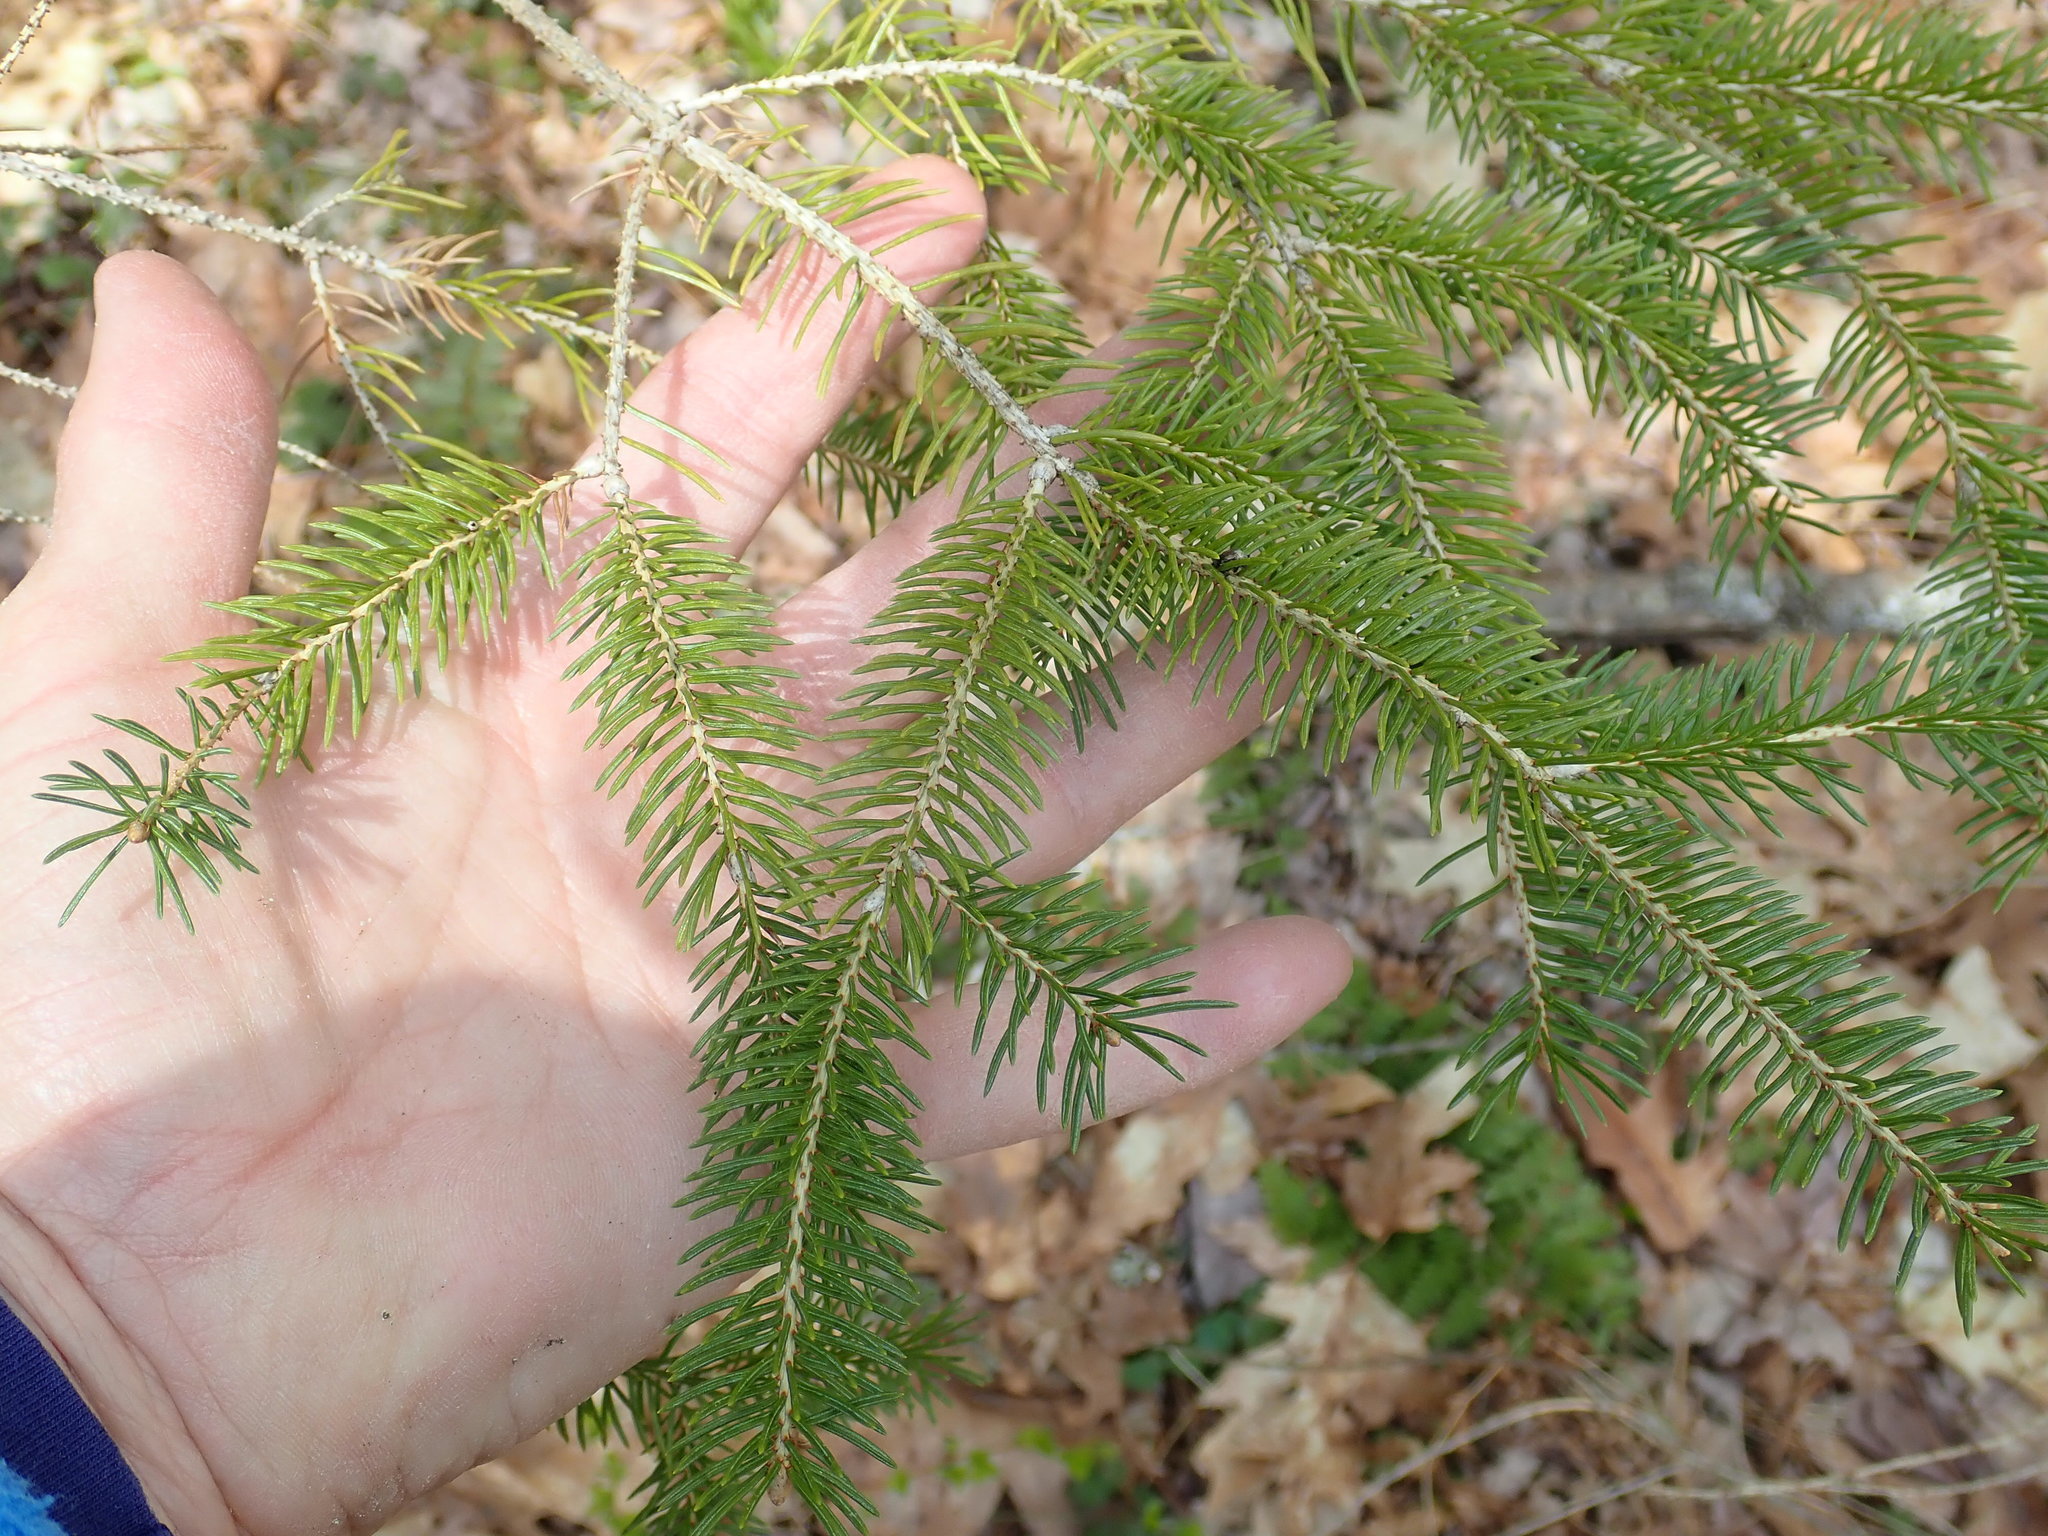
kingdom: Plantae
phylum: Tracheophyta
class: Pinopsida
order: Pinales
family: Pinaceae
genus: Picea
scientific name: Picea abies
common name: Norway spruce
